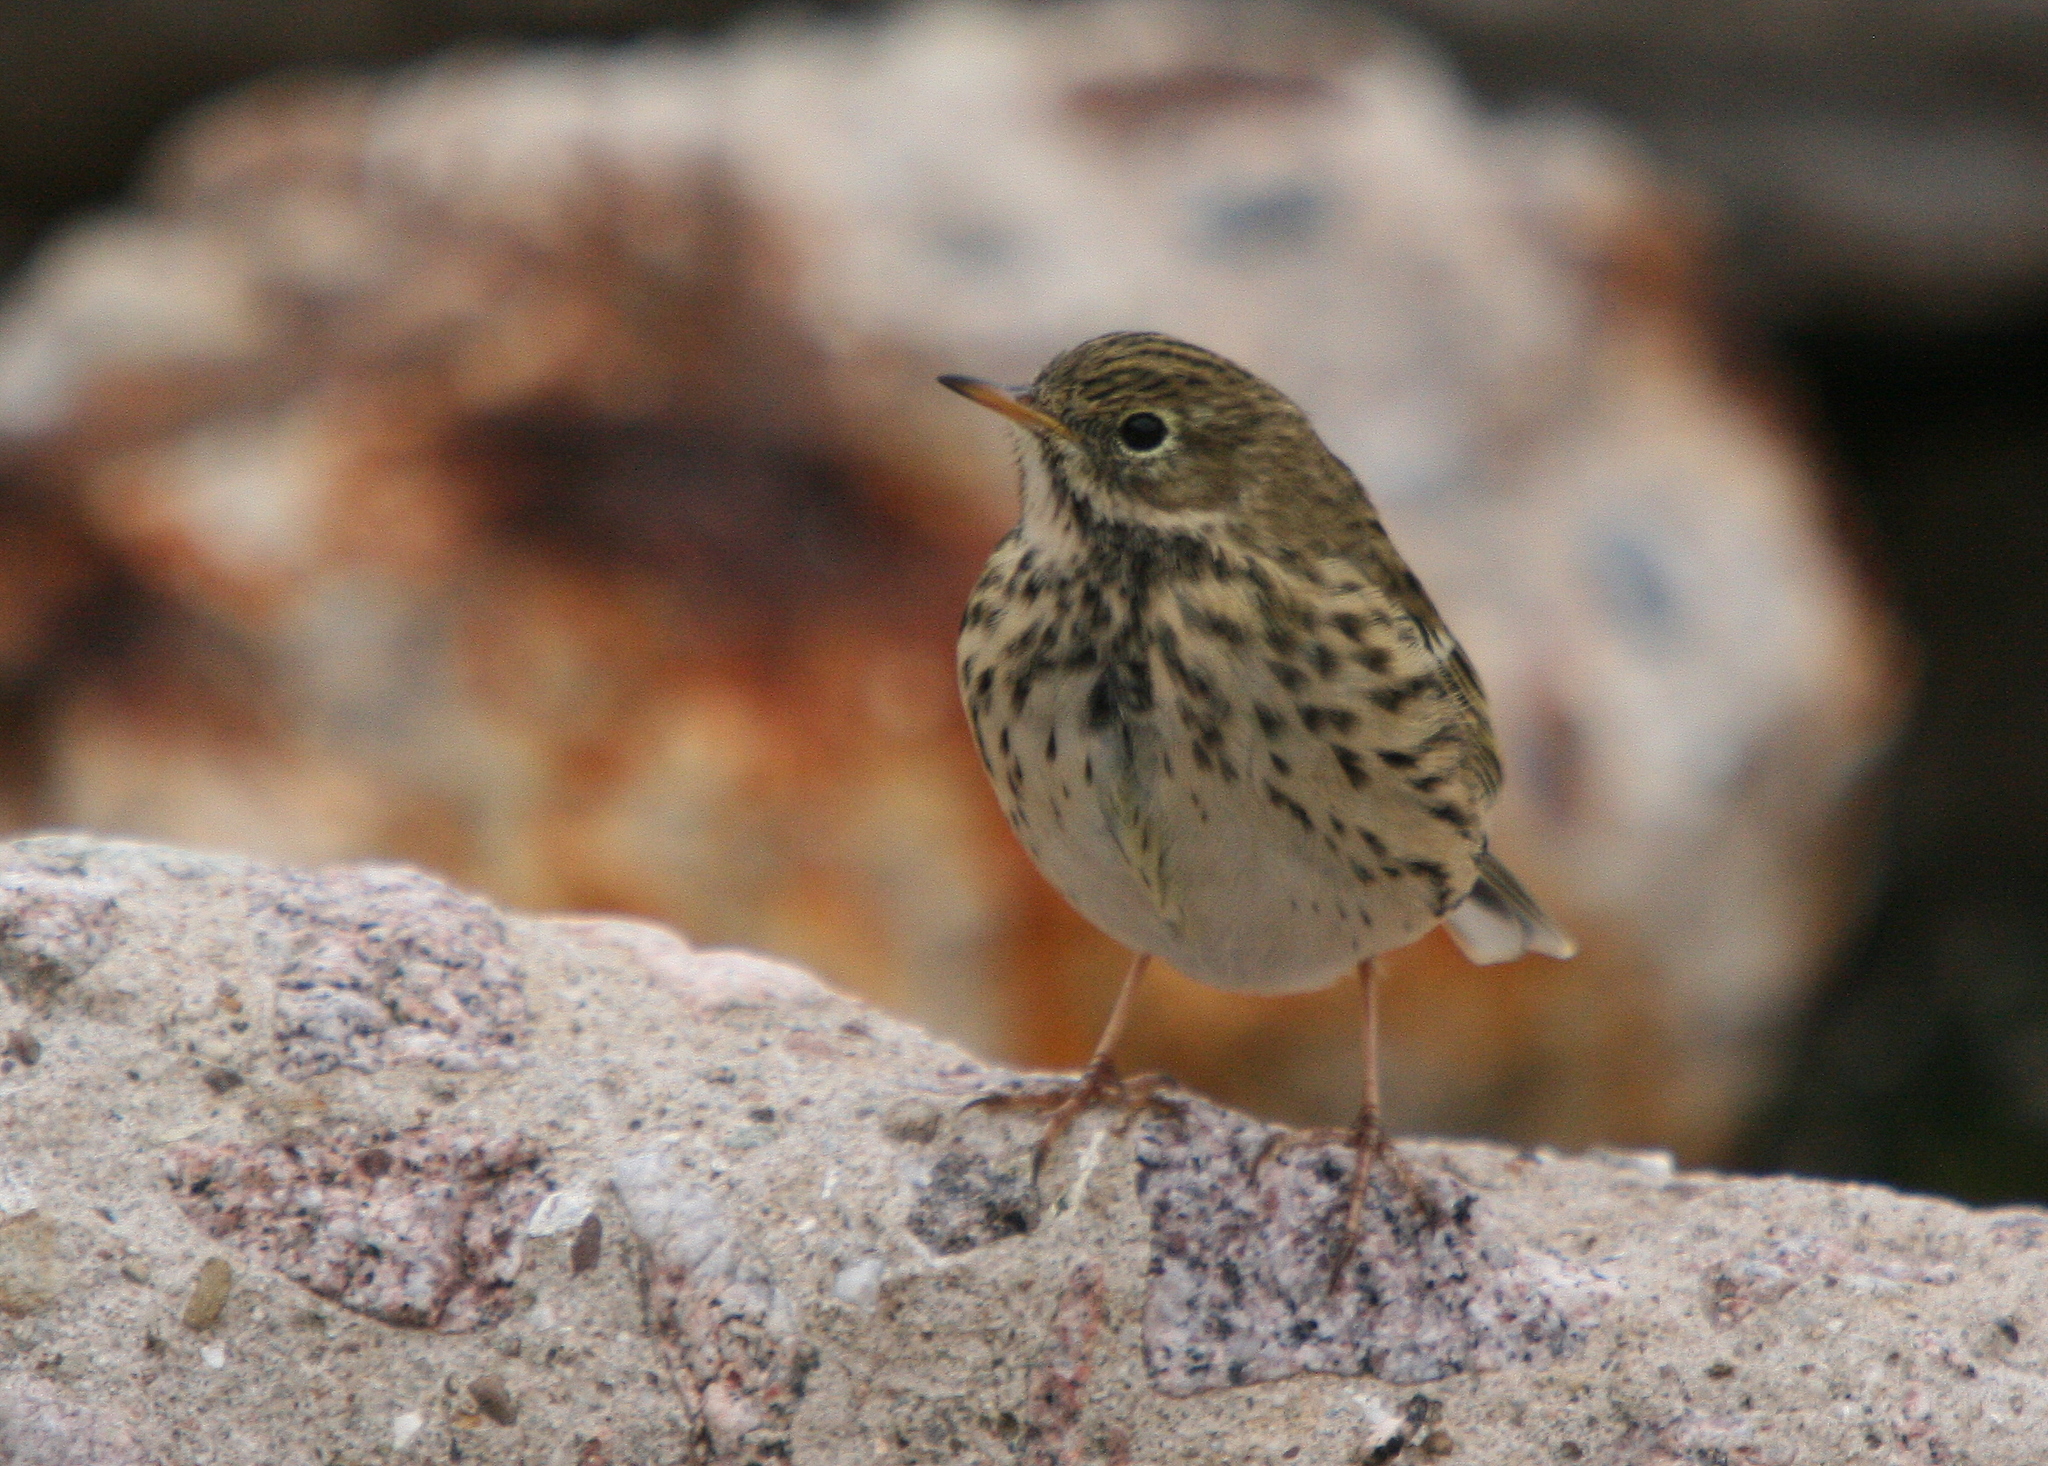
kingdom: Animalia
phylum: Chordata
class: Aves
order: Passeriformes
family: Motacillidae
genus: Anthus
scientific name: Anthus pratensis
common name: Meadow pipit
